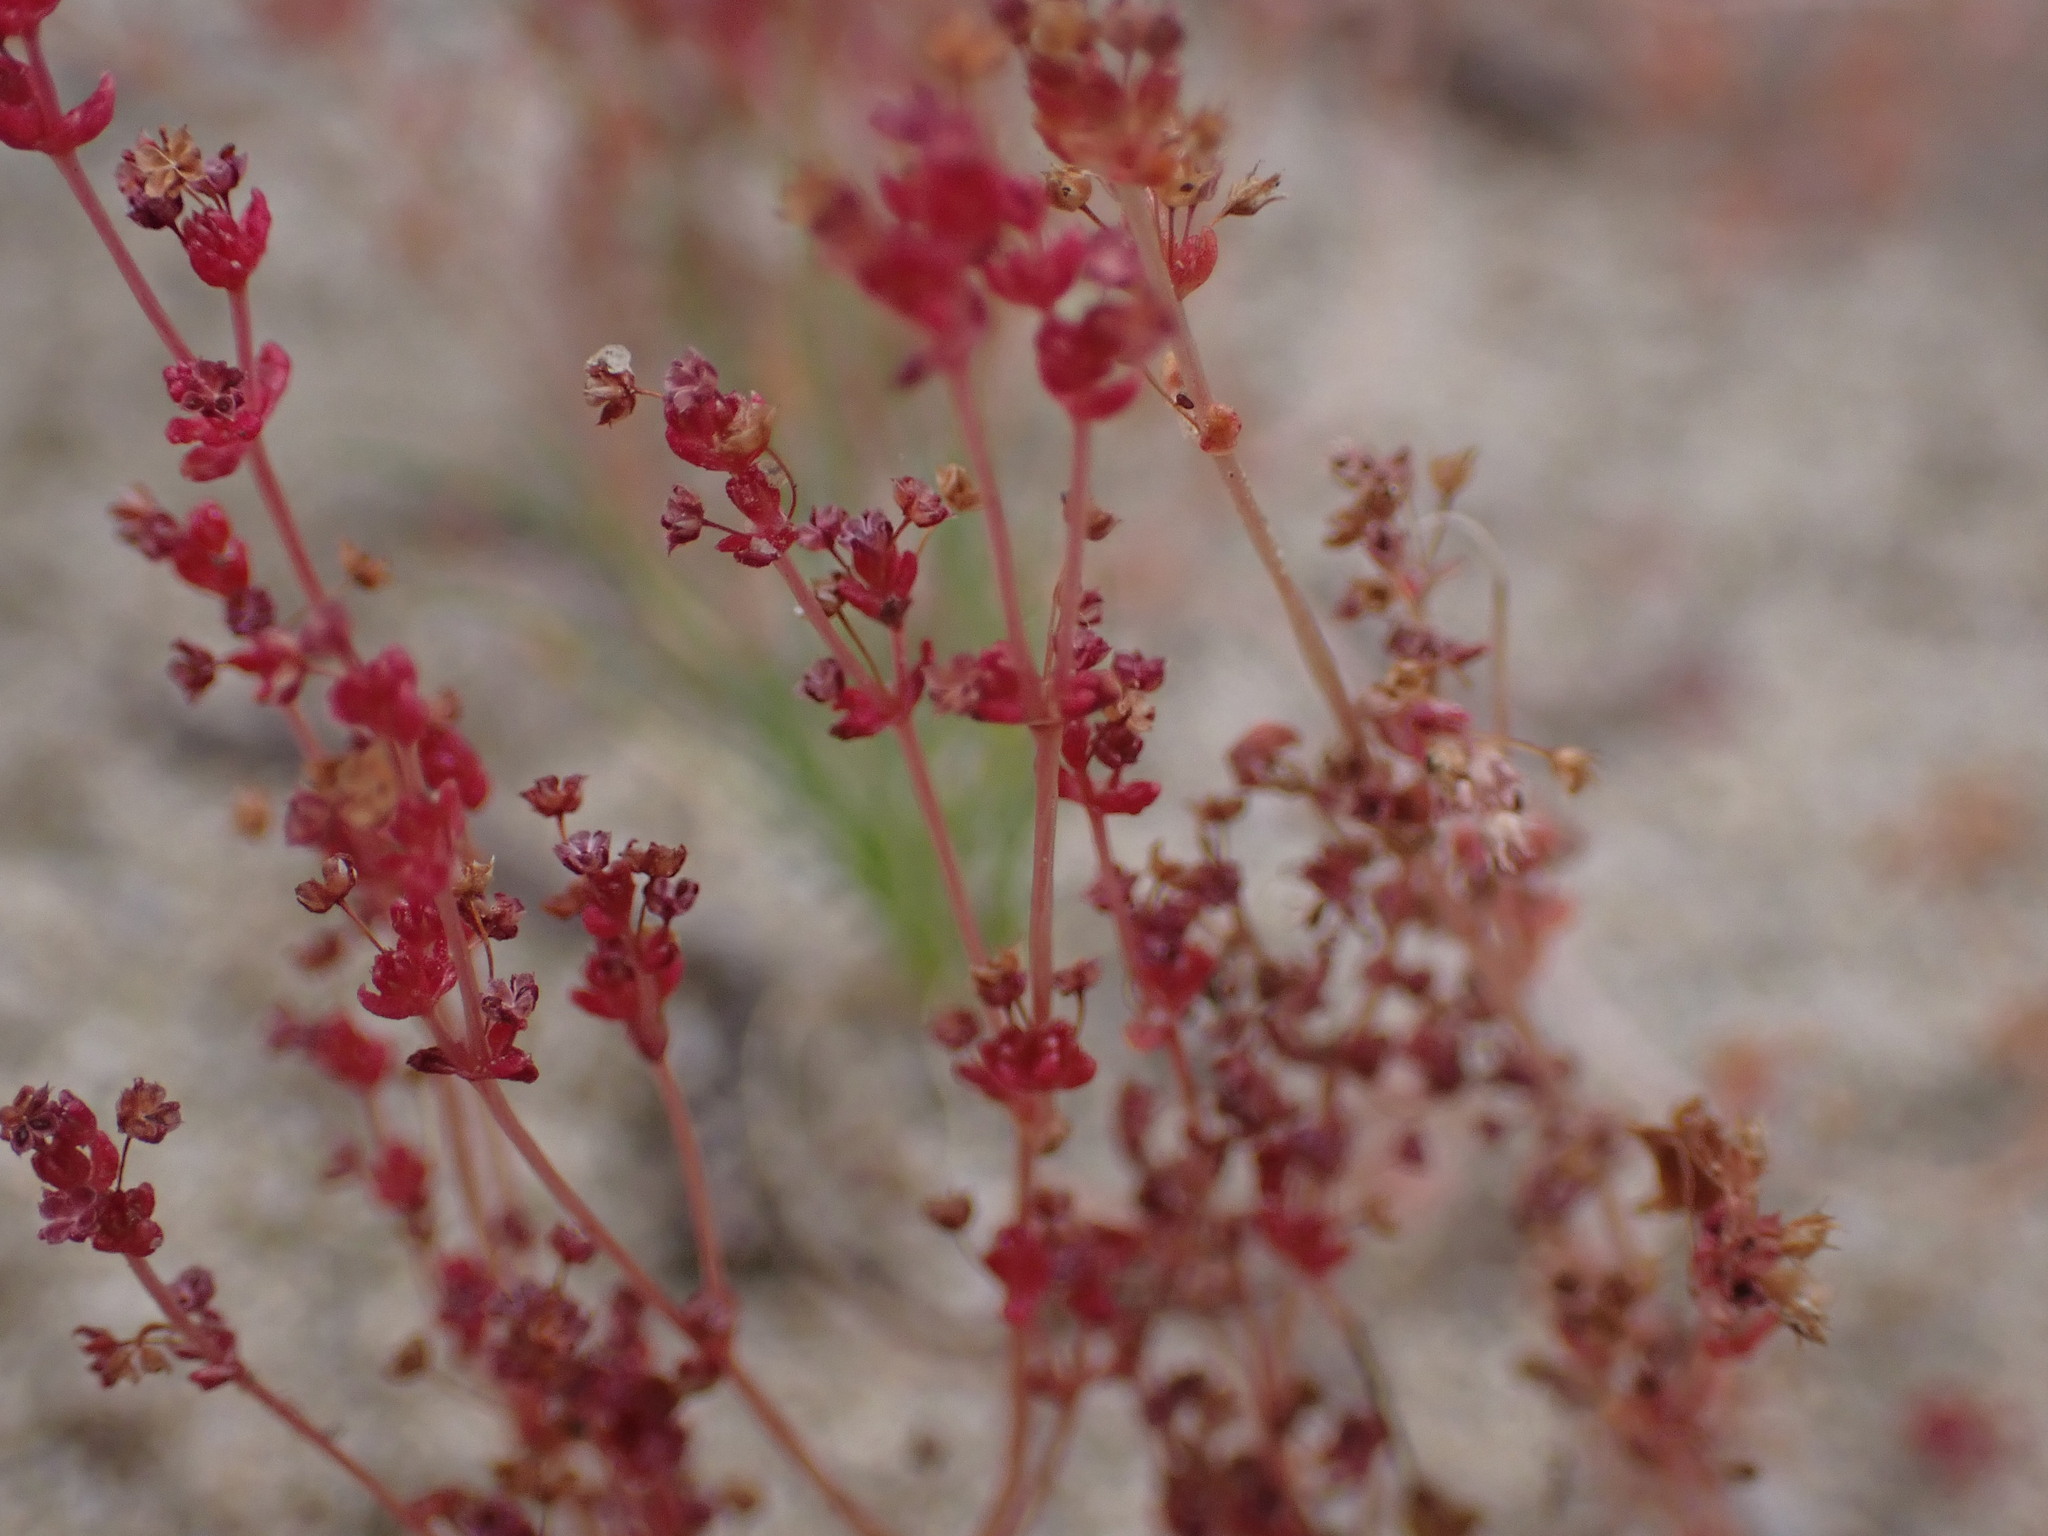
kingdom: Plantae
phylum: Tracheophyta
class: Magnoliopsida
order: Saxifragales
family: Crassulaceae
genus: Crassula
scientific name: Crassula connata
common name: Erect pygmyweed
